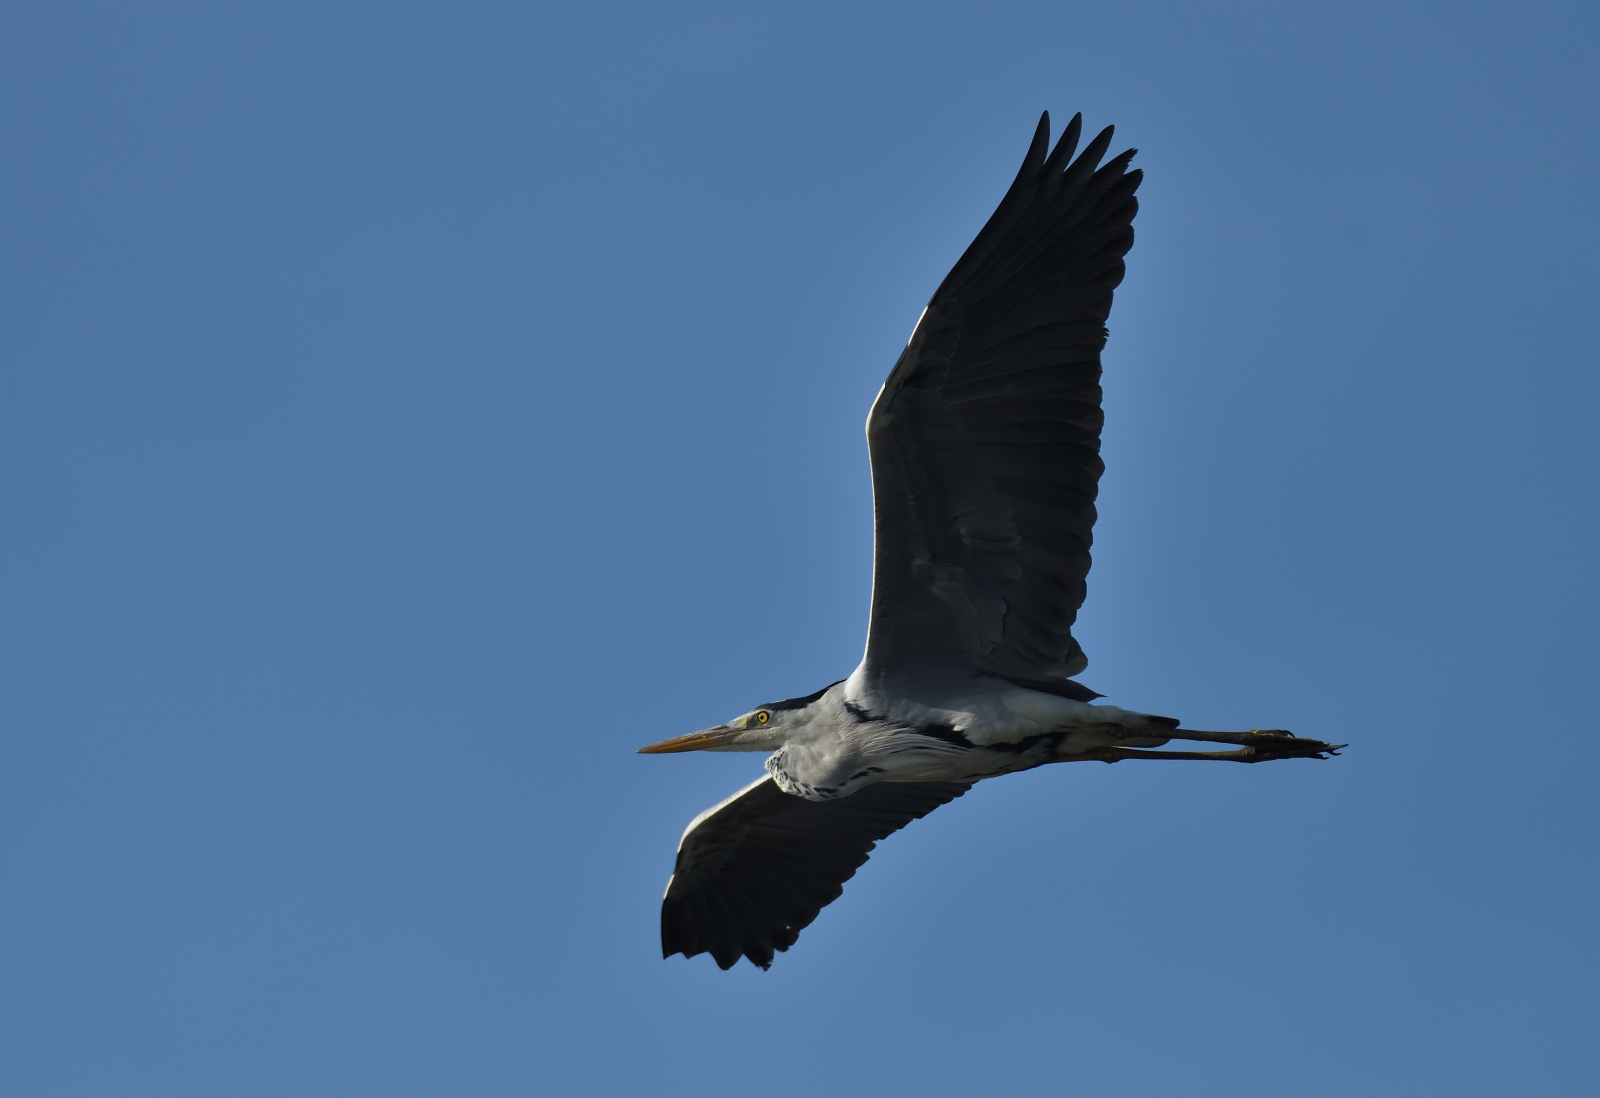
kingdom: Animalia
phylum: Chordata
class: Aves
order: Pelecaniformes
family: Ardeidae
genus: Ardea
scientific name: Ardea cinerea
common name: Grey heron
